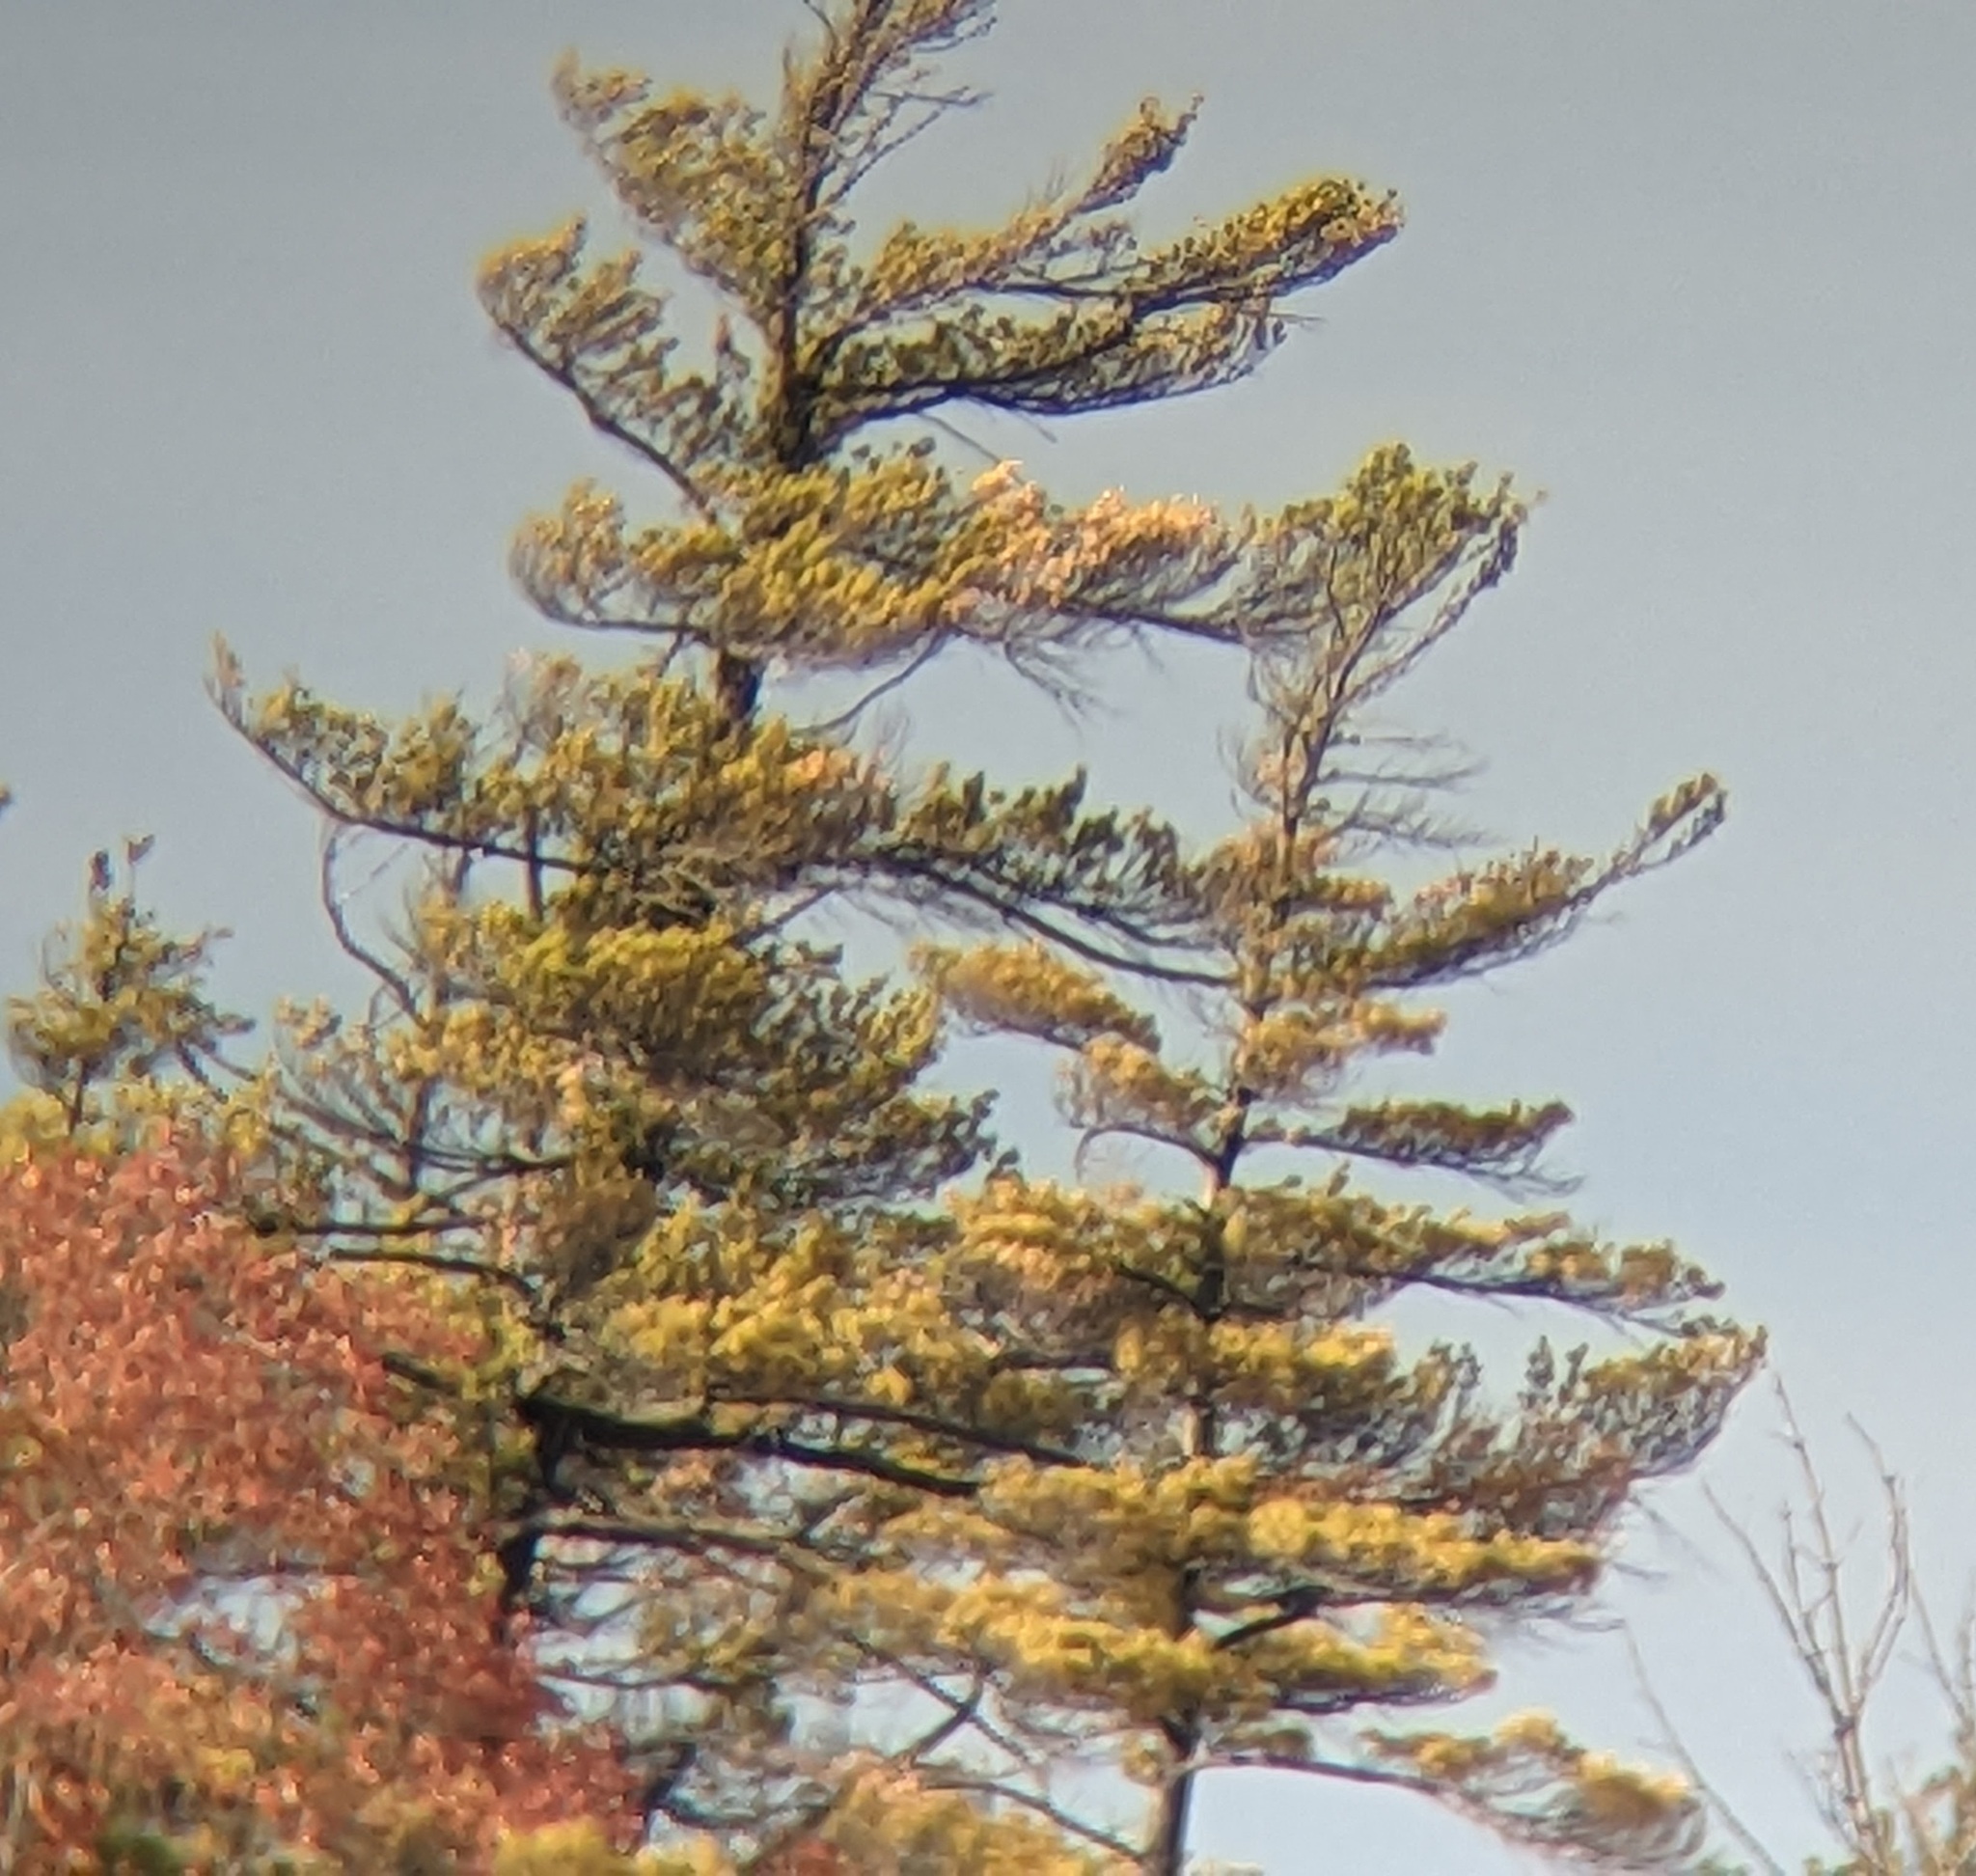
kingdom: Plantae
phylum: Tracheophyta
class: Pinopsida
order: Pinales
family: Pinaceae
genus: Pinus
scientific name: Pinus strobus
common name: Weymouth pine
